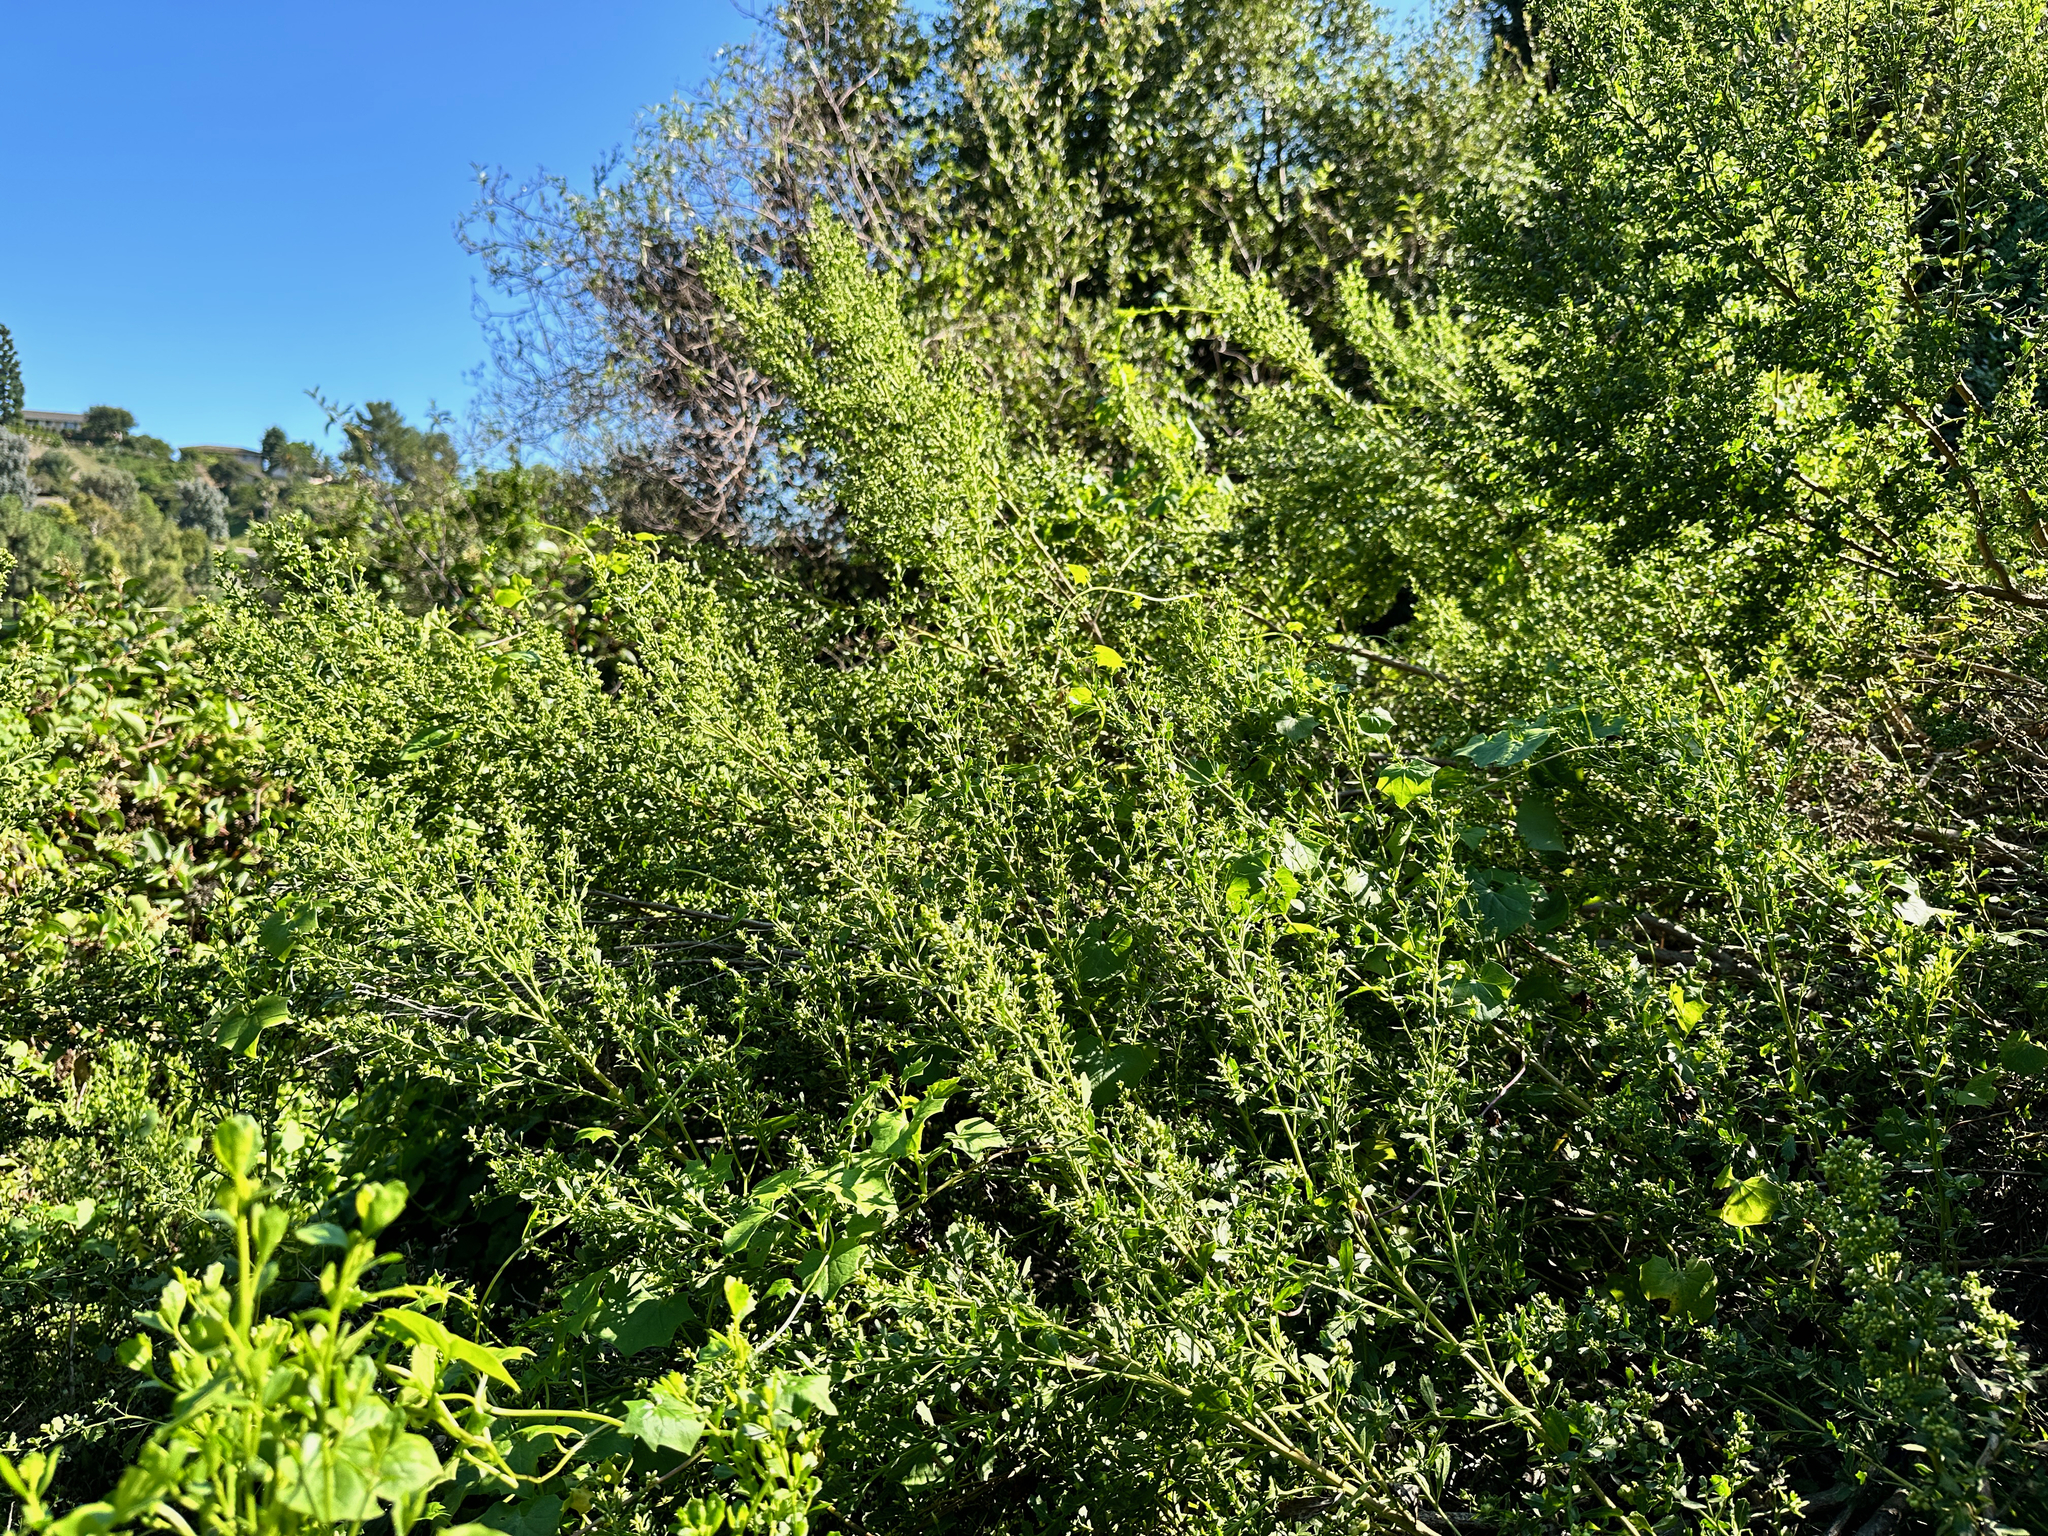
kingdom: Plantae
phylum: Tracheophyta
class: Magnoliopsida
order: Asterales
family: Asteraceae
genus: Baccharis
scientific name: Baccharis pilularis
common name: Coyotebrush
